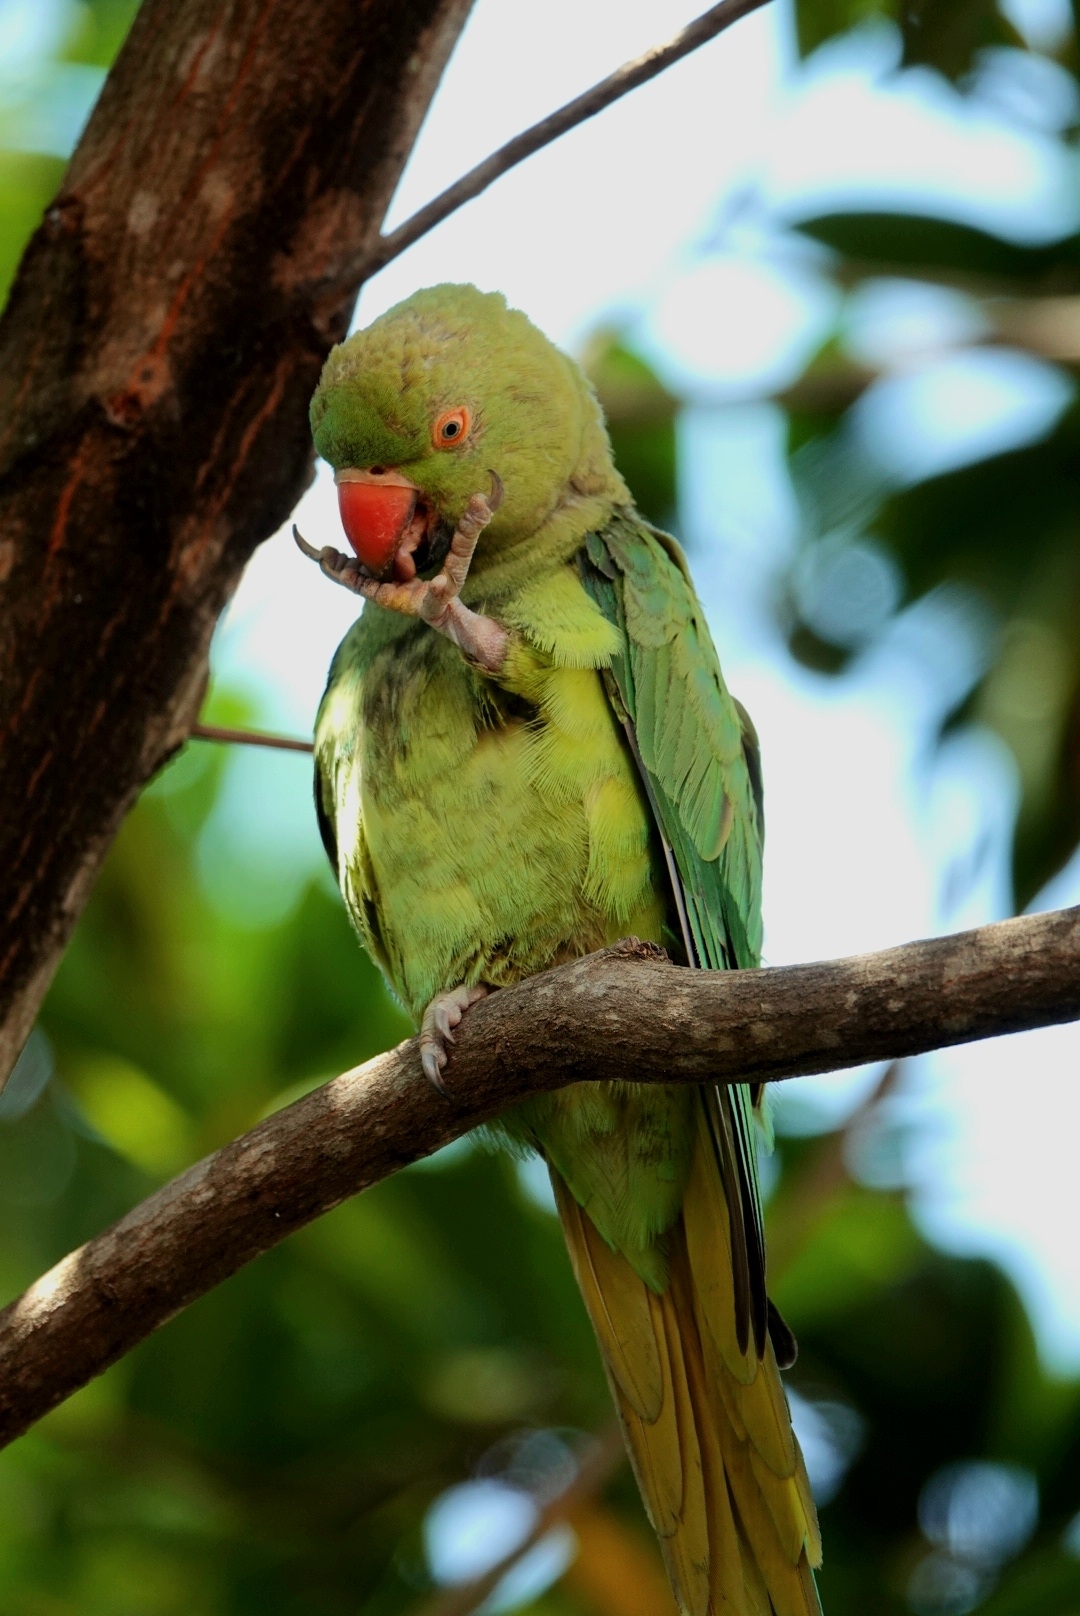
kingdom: Animalia
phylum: Chordata
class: Aves
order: Psittaciformes
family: Psittacidae
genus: Psittacula
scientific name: Psittacula krameri
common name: Rose-ringed parakeet
